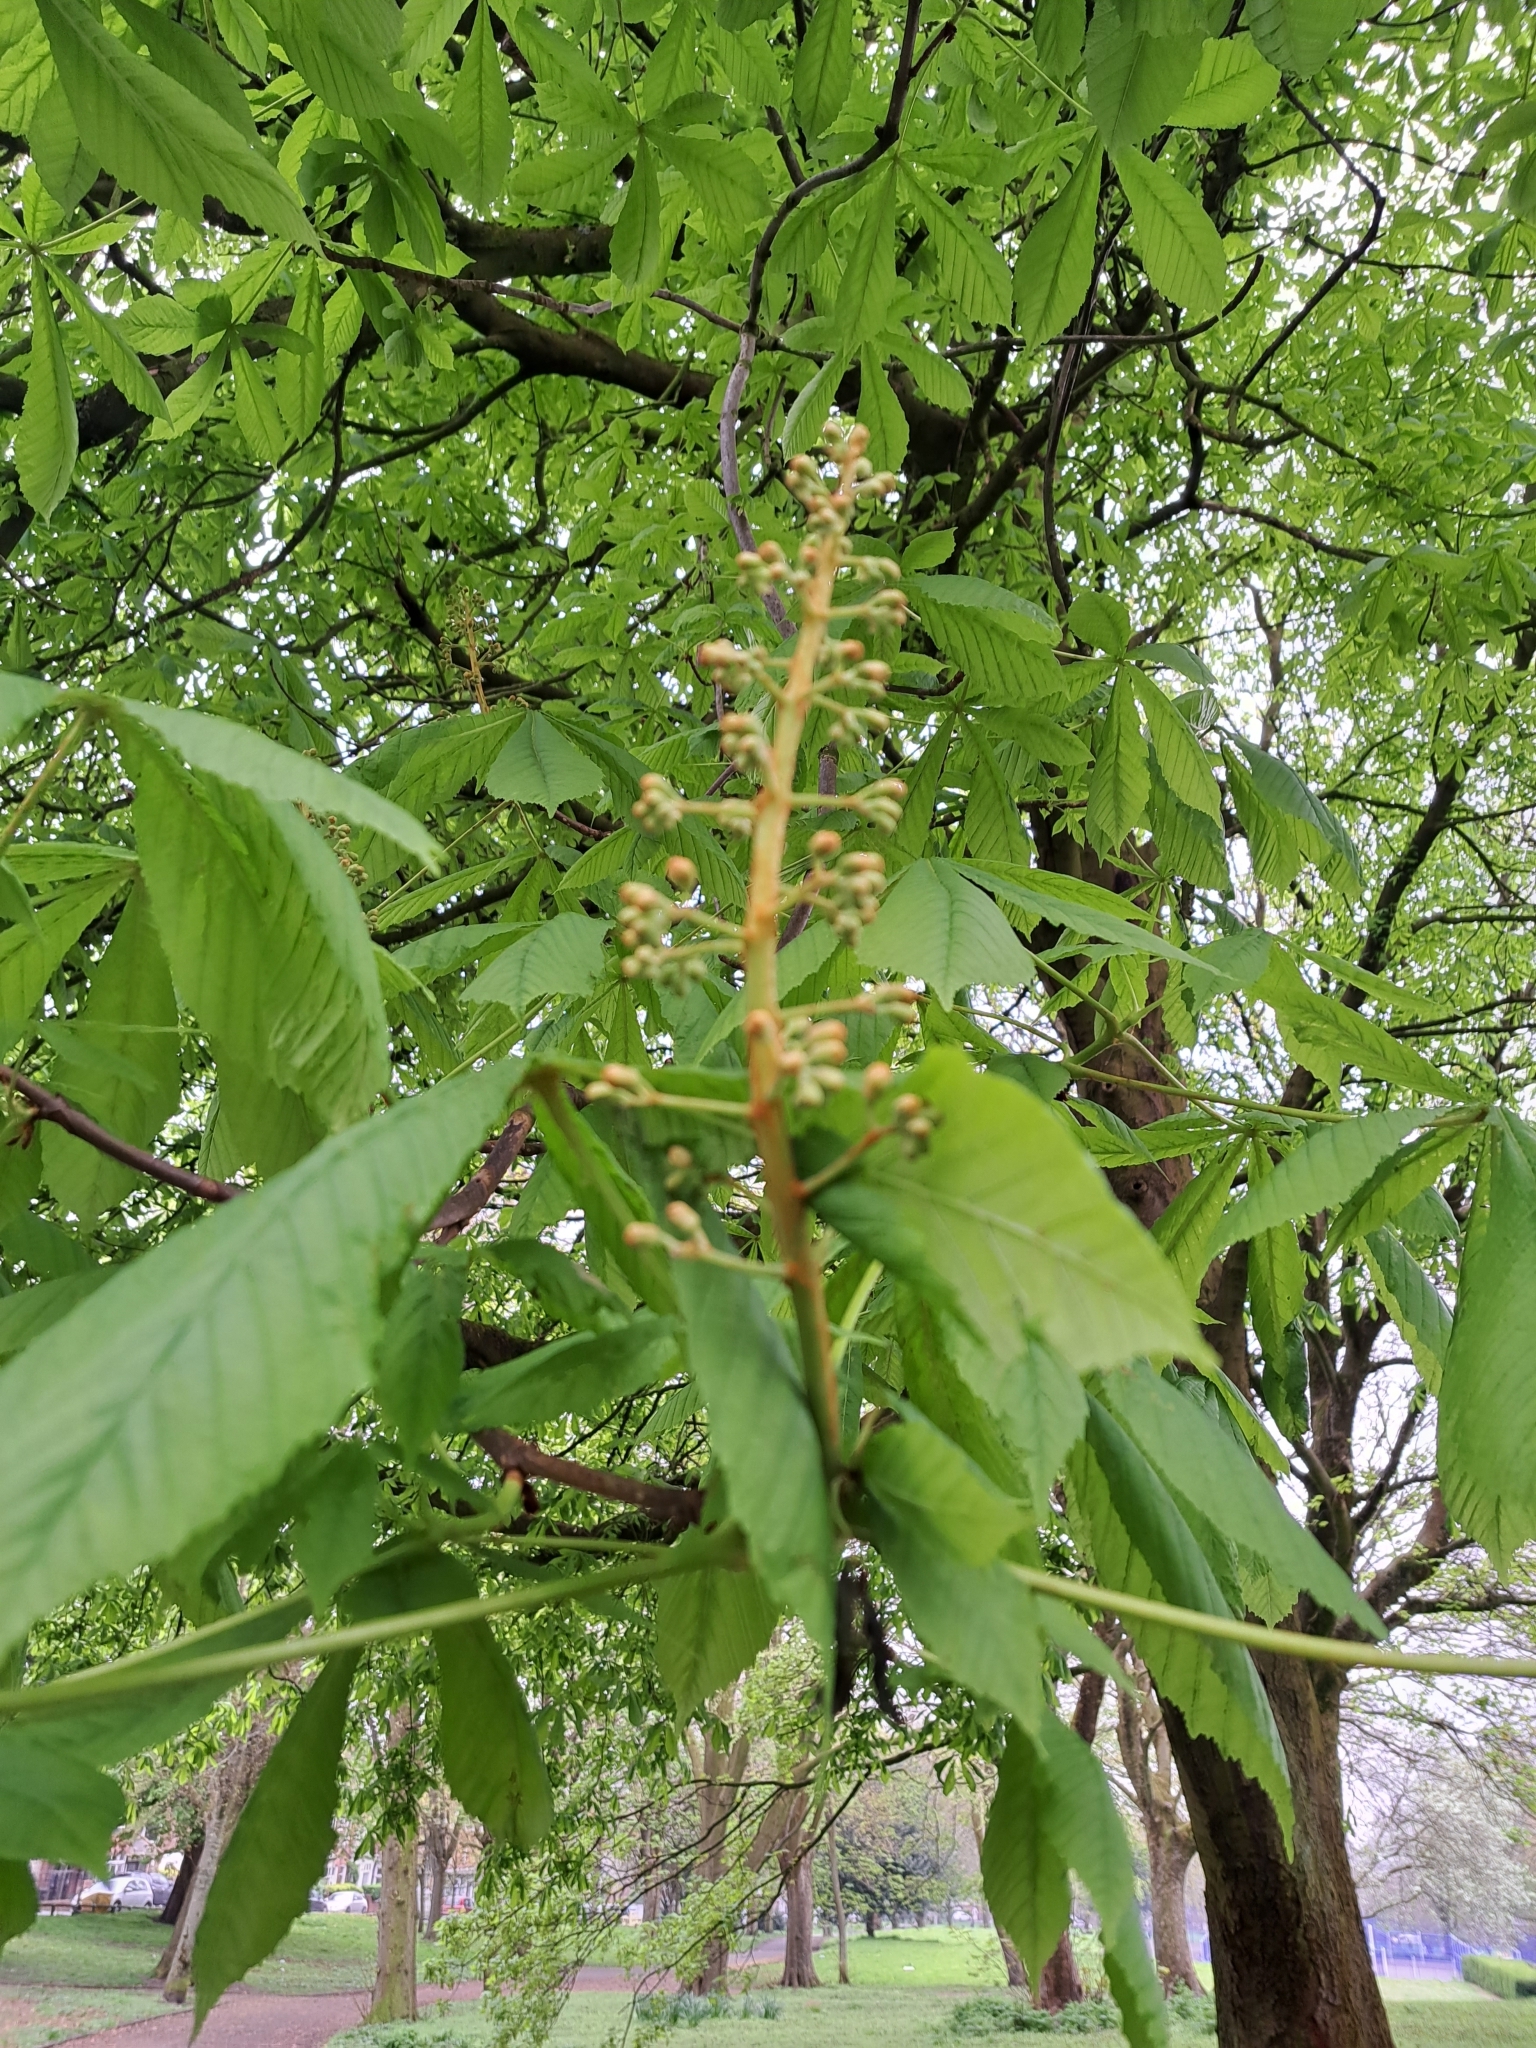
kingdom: Plantae
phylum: Tracheophyta
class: Magnoliopsida
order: Sapindales
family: Sapindaceae
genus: Aesculus
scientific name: Aesculus hippocastanum
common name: Horse-chestnut
